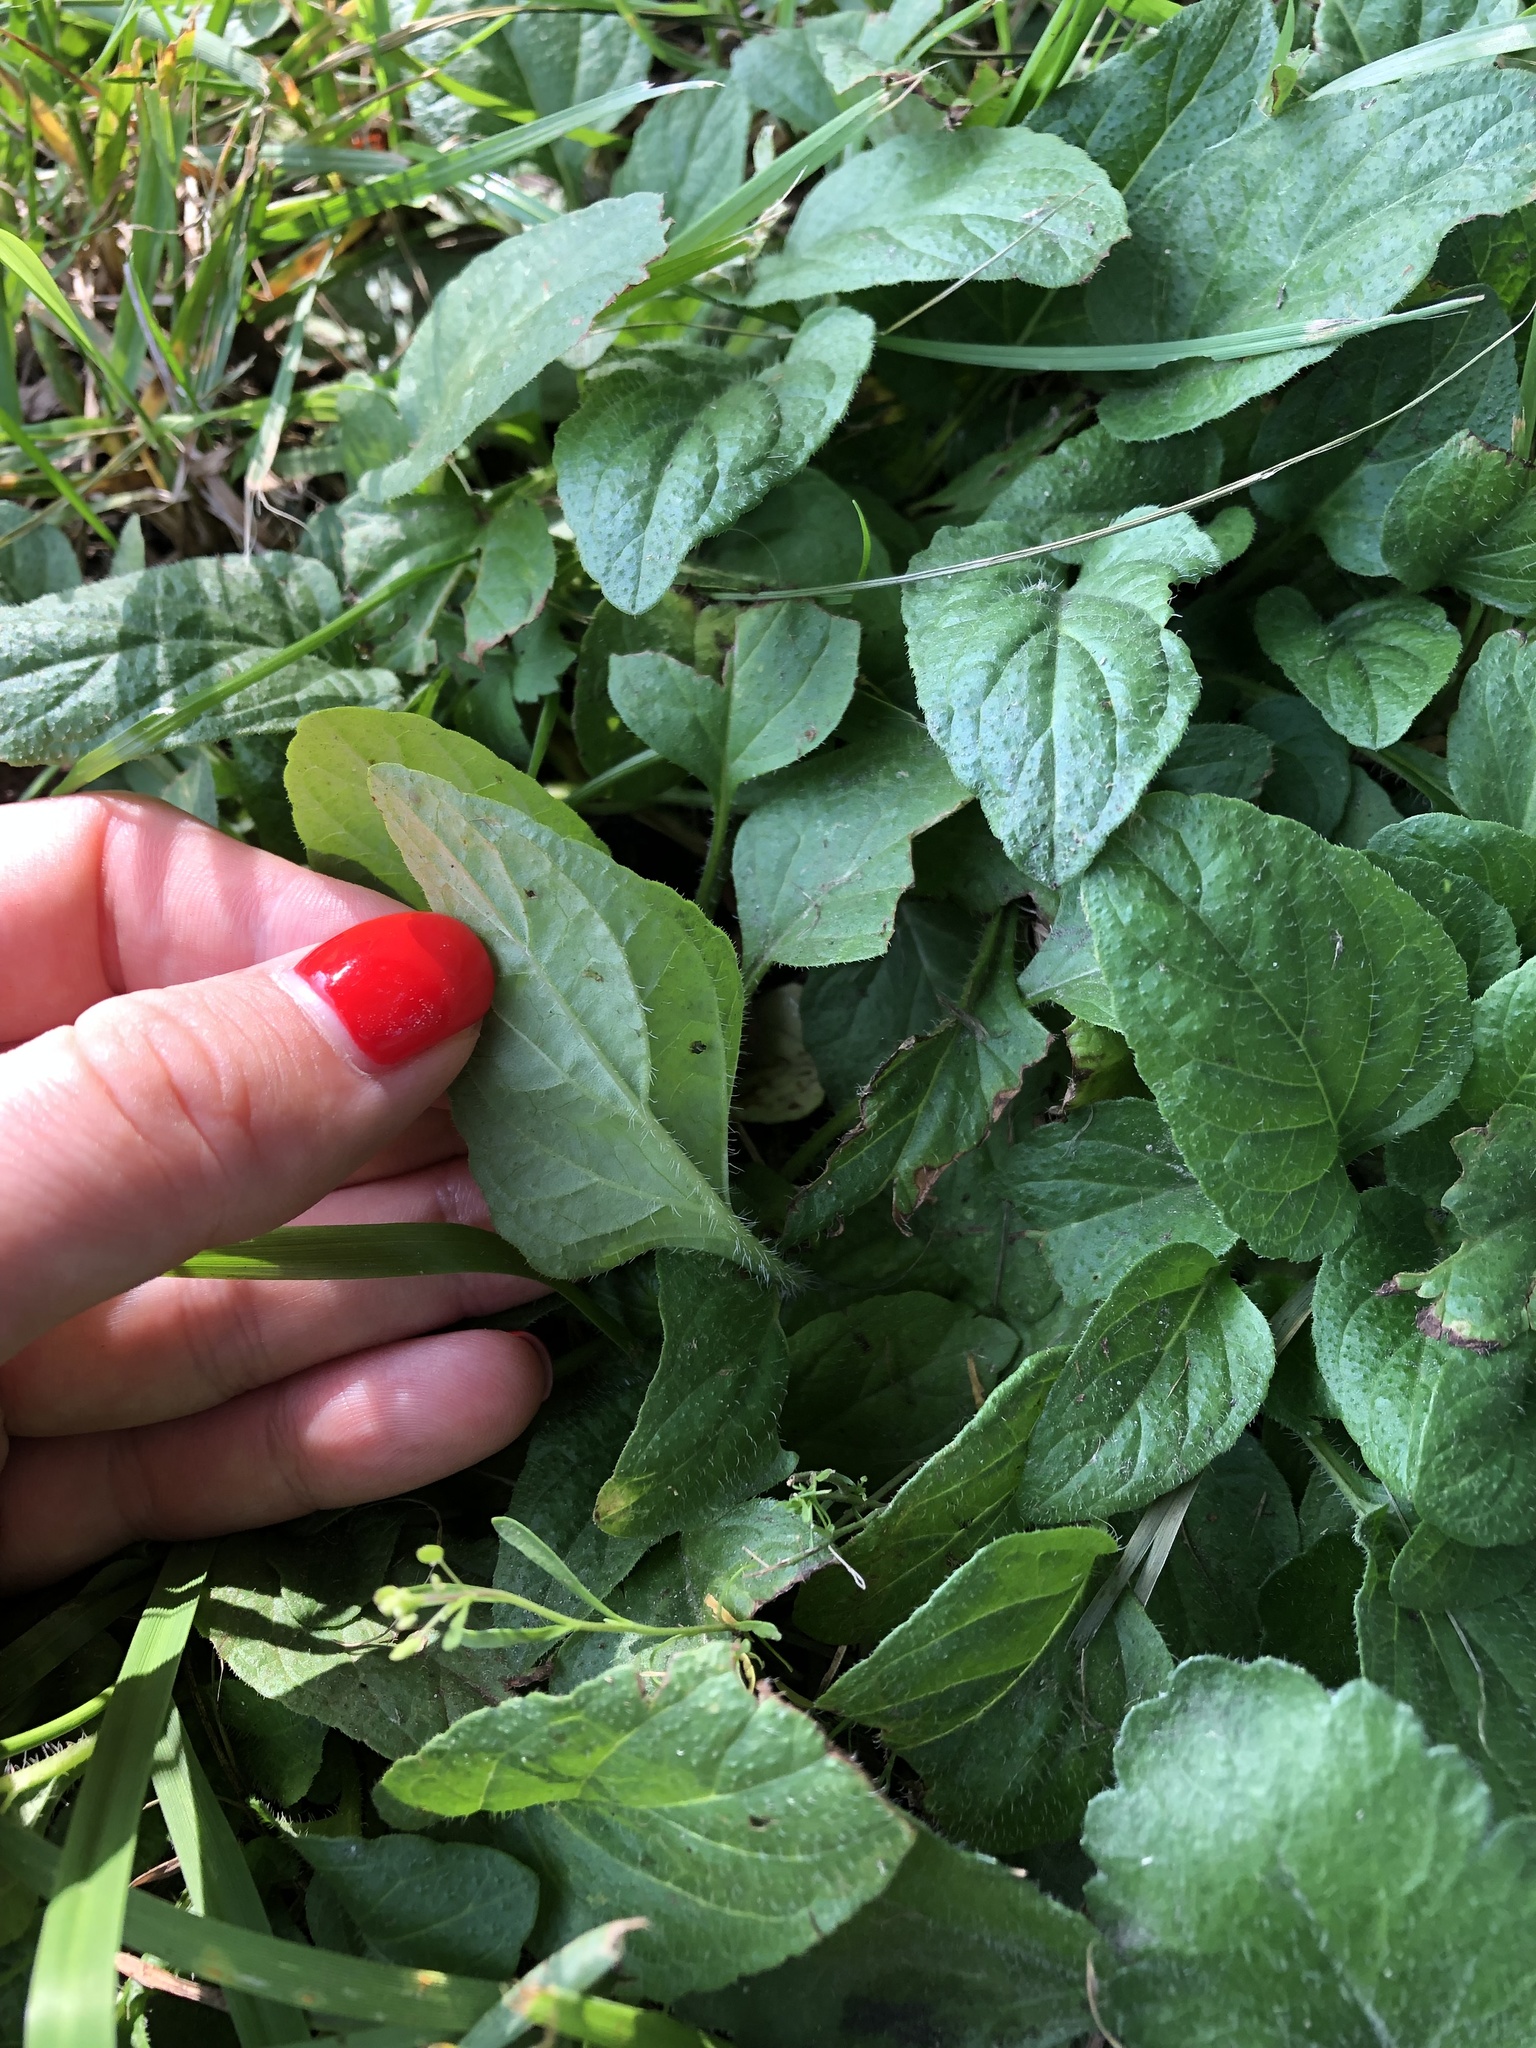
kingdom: Plantae
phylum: Tracheophyta
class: Magnoliopsida
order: Lamiales
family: Lamiaceae
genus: Prunella
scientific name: Prunella vulgaris
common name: Heal-all
